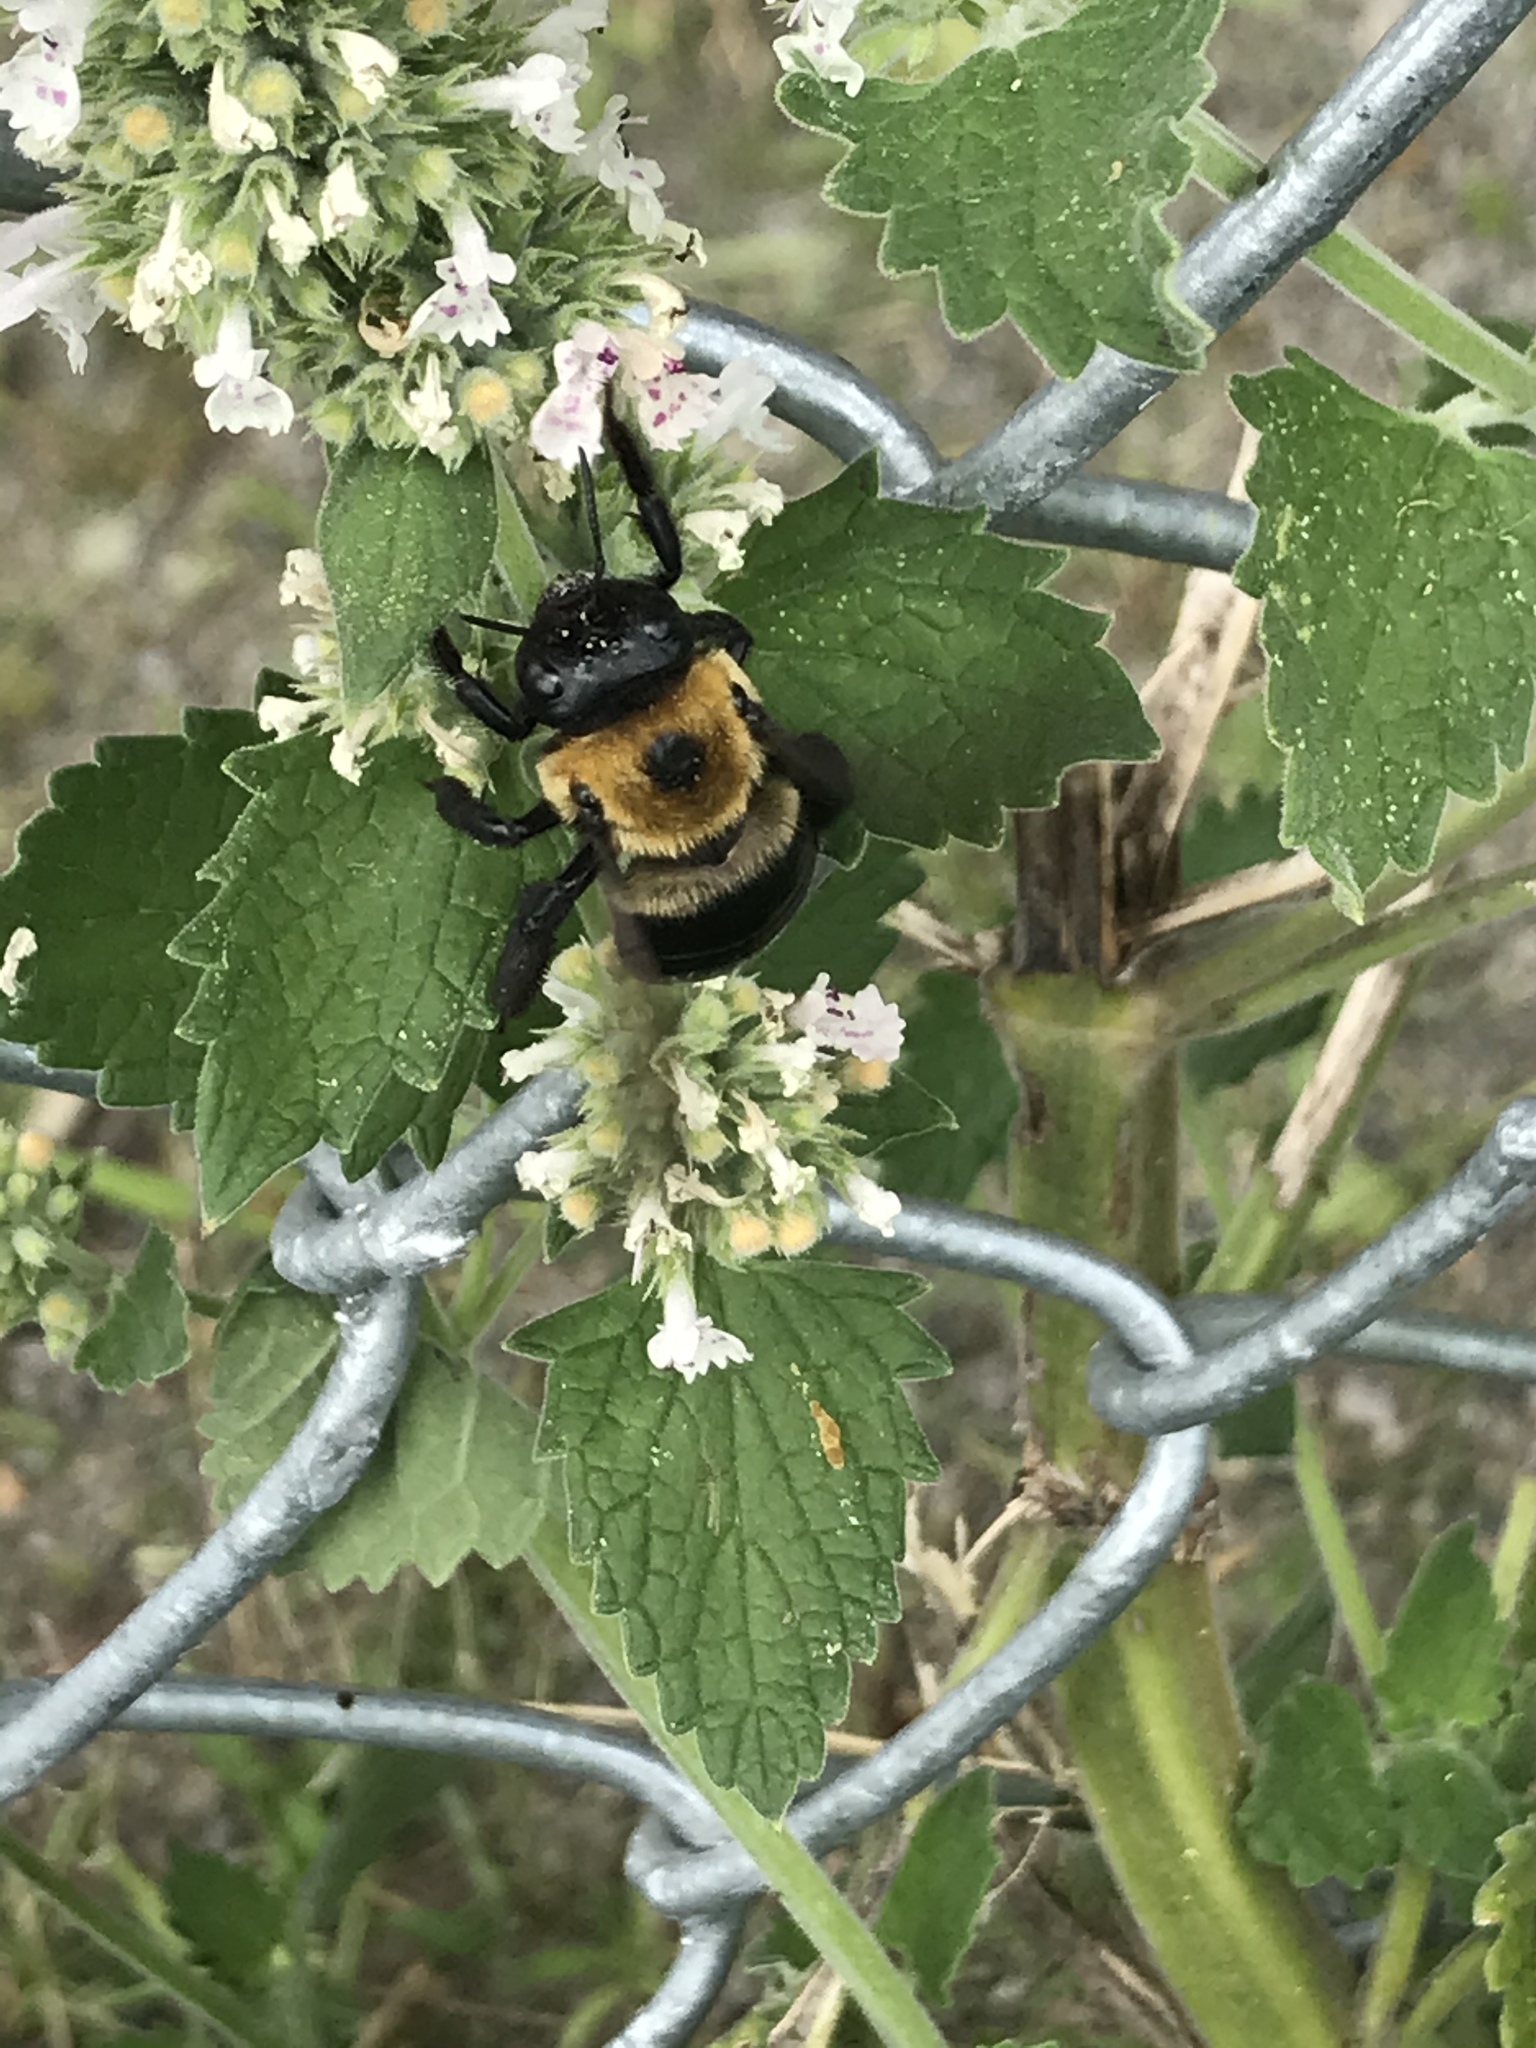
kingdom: Animalia
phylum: Arthropoda
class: Insecta
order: Hymenoptera
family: Apidae
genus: Xylocopa
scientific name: Xylocopa virginica
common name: Carpenter bee
